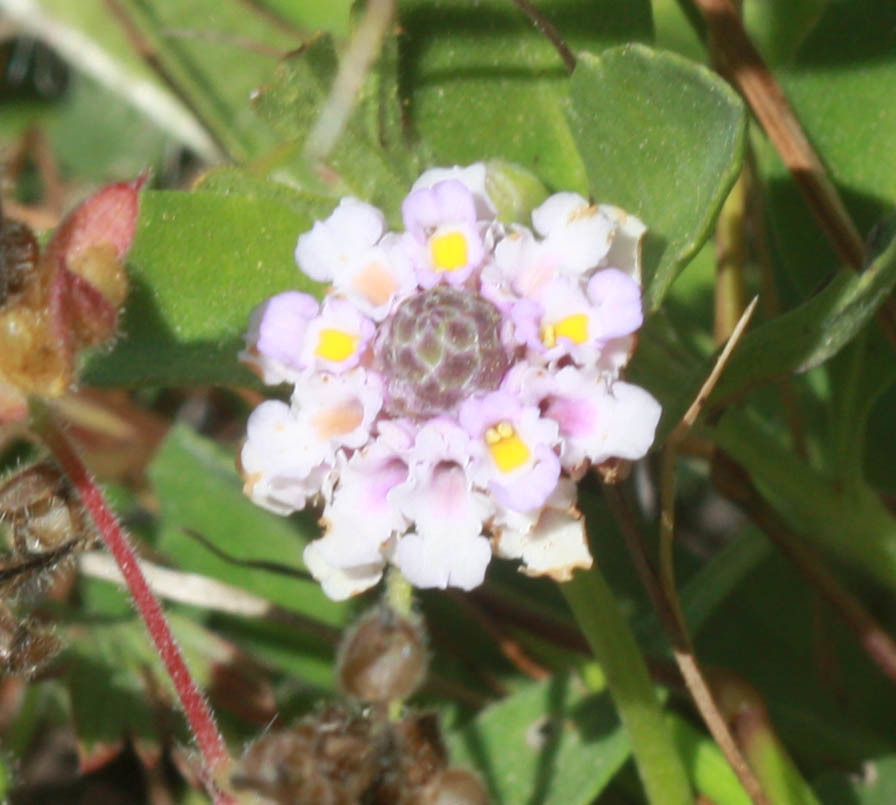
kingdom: Plantae
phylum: Tracheophyta
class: Magnoliopsida
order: Lamiales
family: Verbenaceae
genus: Phyla
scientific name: Phyla nodiflora
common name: Frogfruit
